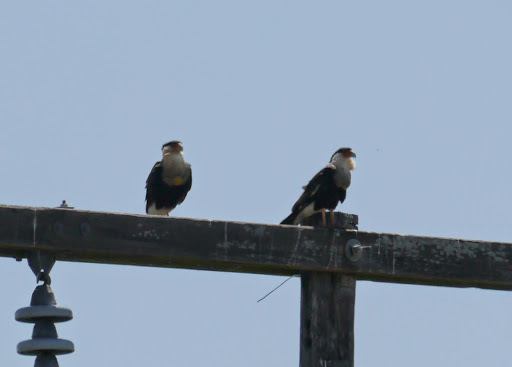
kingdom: Animalia
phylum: Chordata
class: Aves
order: Falconiformes
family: Falconidae
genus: Caracara
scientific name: Caracara plancus
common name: Southern caracara
